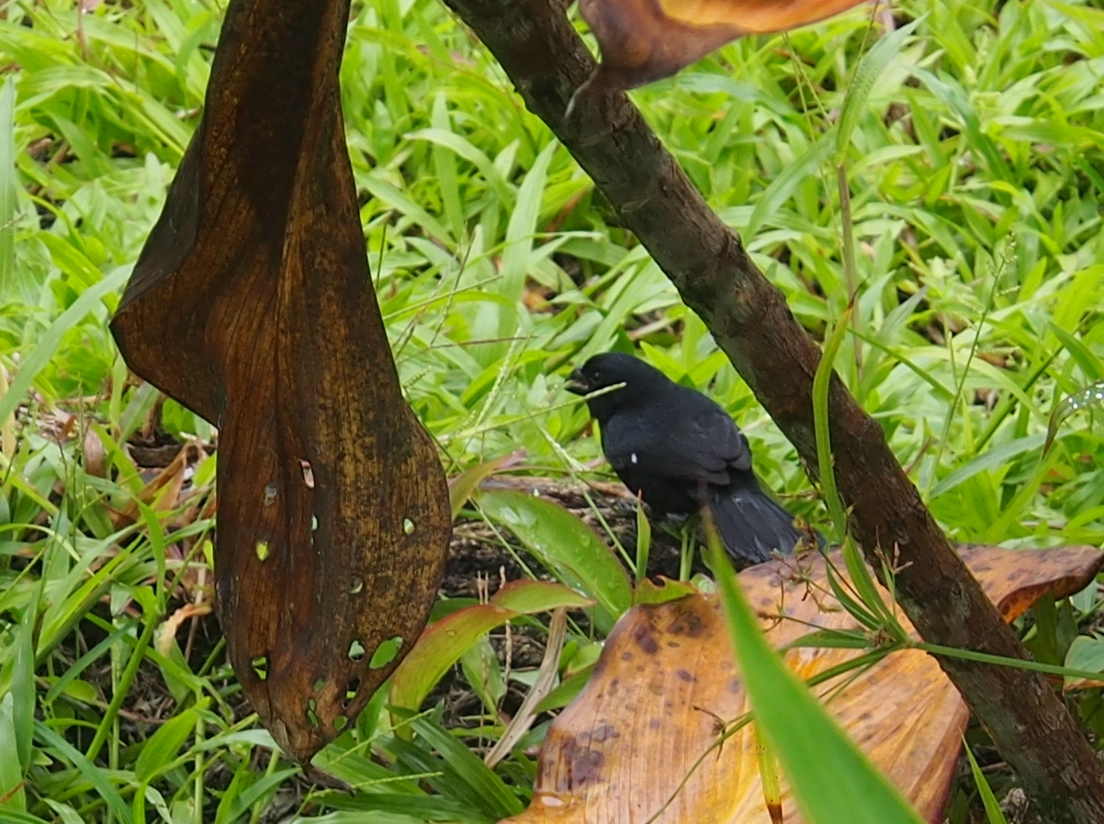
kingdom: Animalia
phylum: Chordata
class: Aves
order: Passeriformes
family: Thraupidae
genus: Sporophila
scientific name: Sporophila corvina
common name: Variable seedeater
